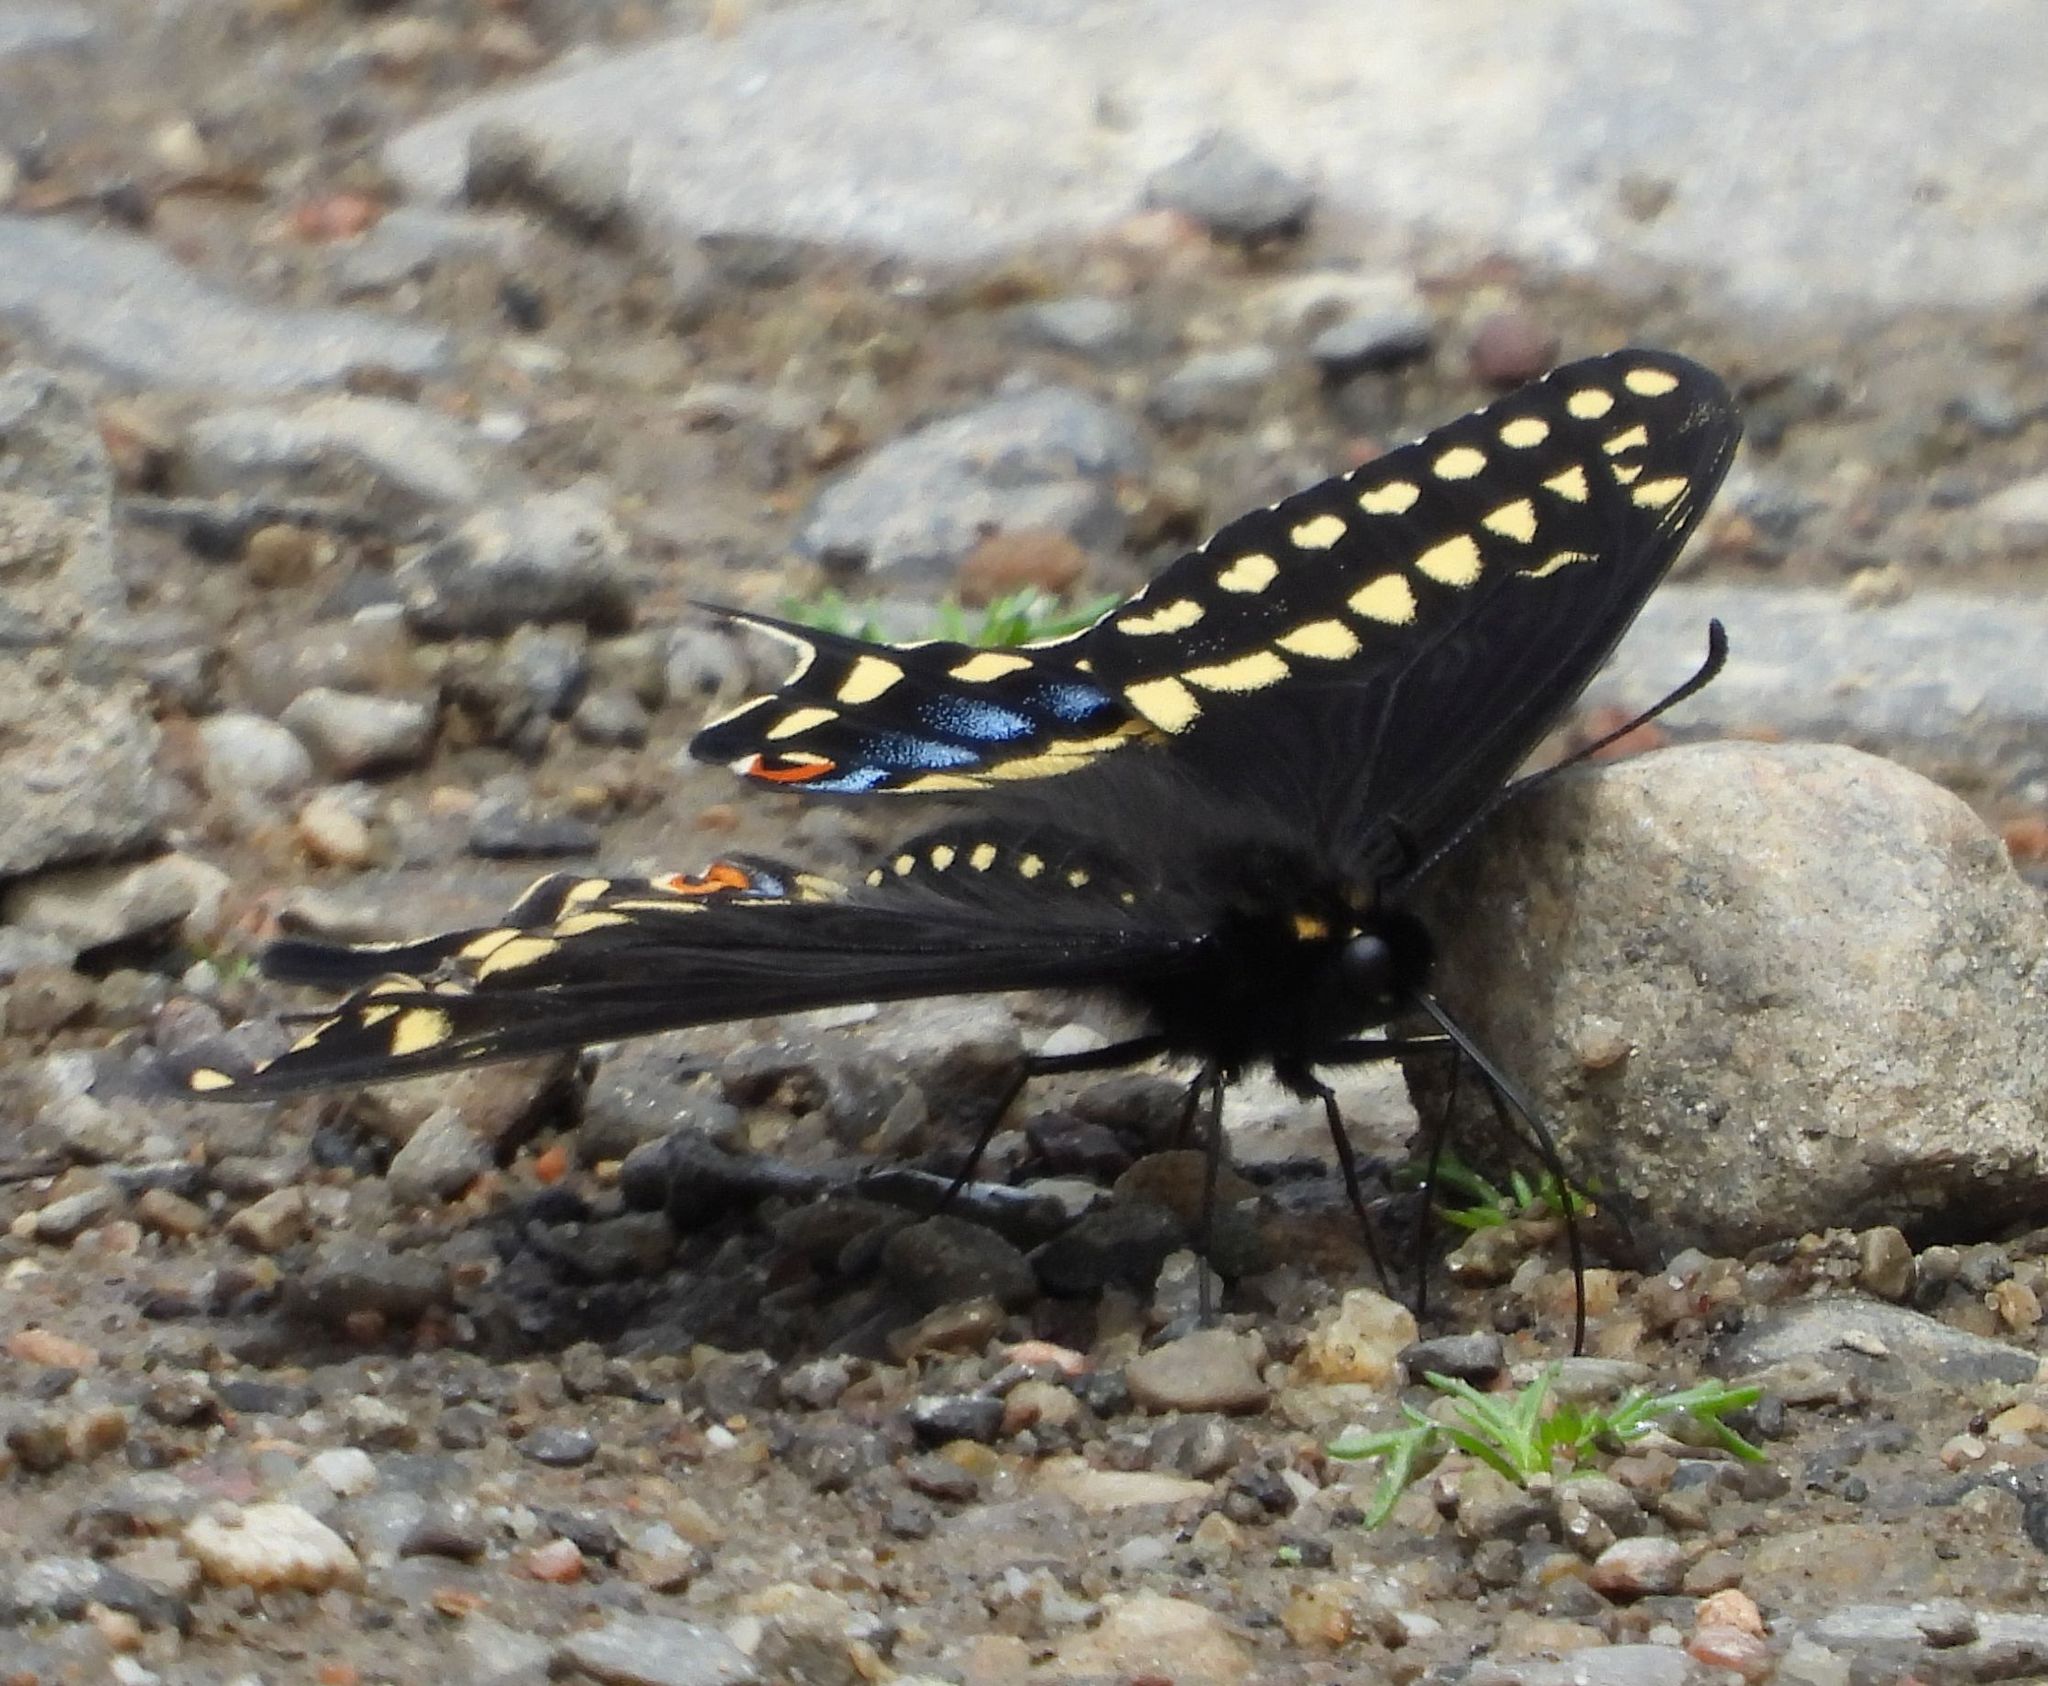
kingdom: Animalia
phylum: Arthropoda
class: Insecta
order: Lepidoptera
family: Papilionidae
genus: Papilio
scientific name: Papilio polyxenes
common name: Black swallowtail
